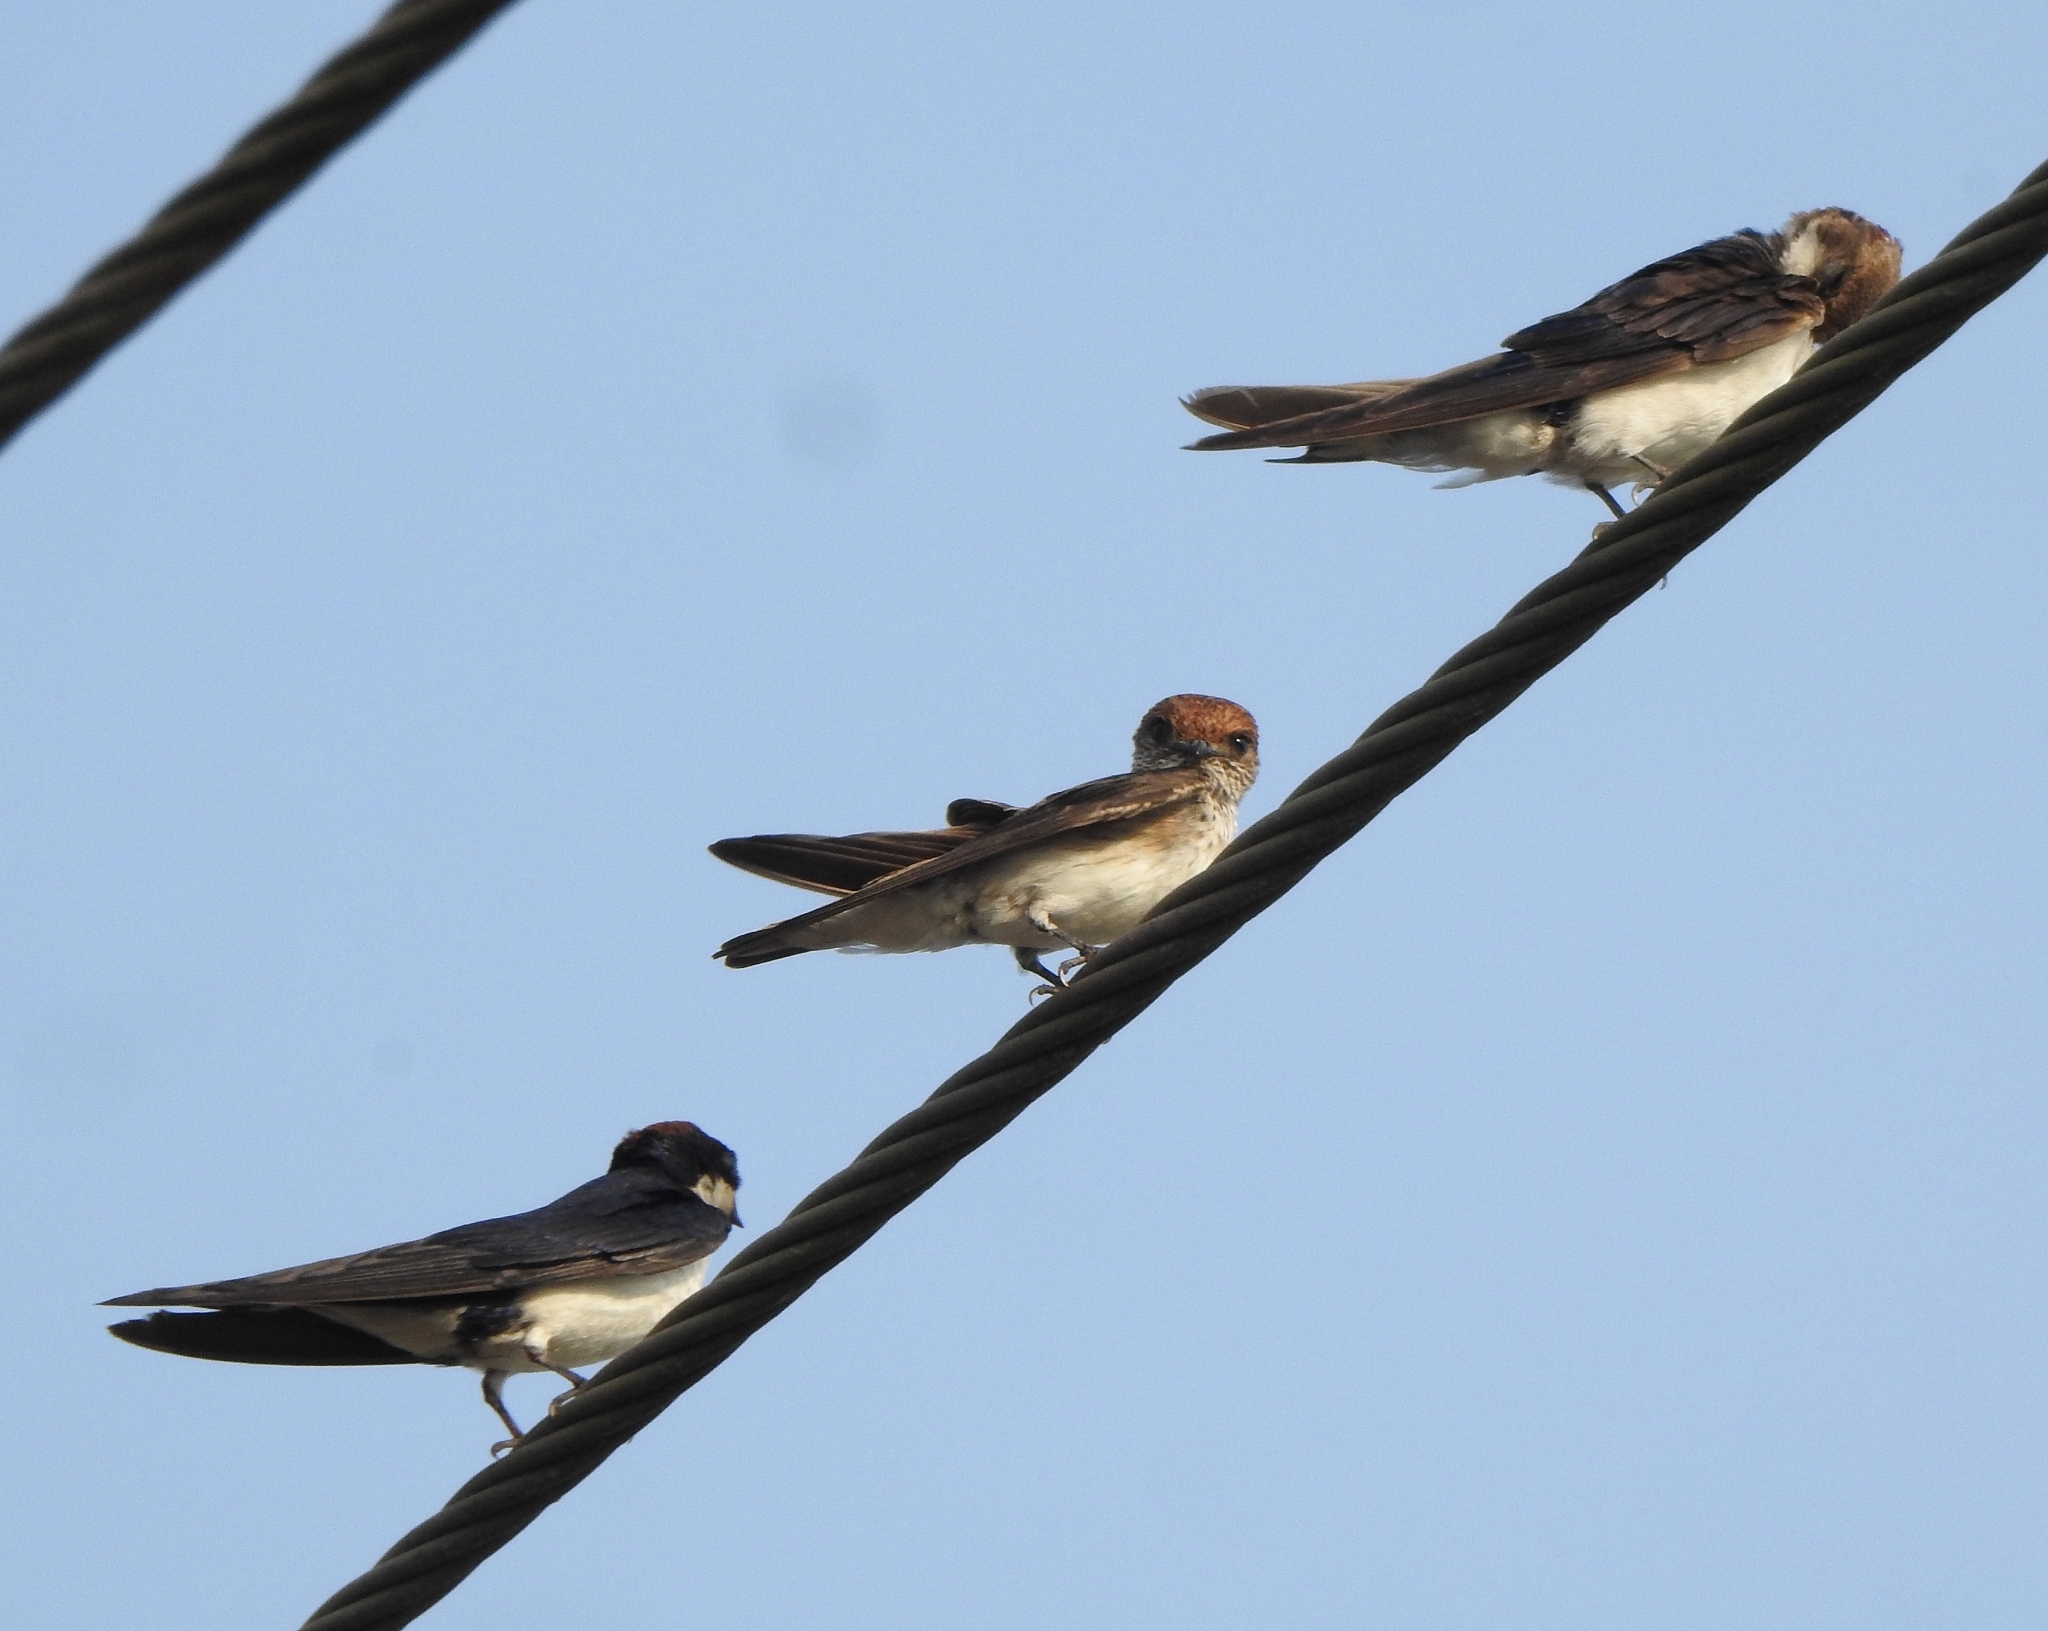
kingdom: Animalia
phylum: Chordata
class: Aves
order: Passeriformes
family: Hirundinidae
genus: Petrochelidon
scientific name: Petrochelidon fluvicola
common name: Streak-throated swallow
